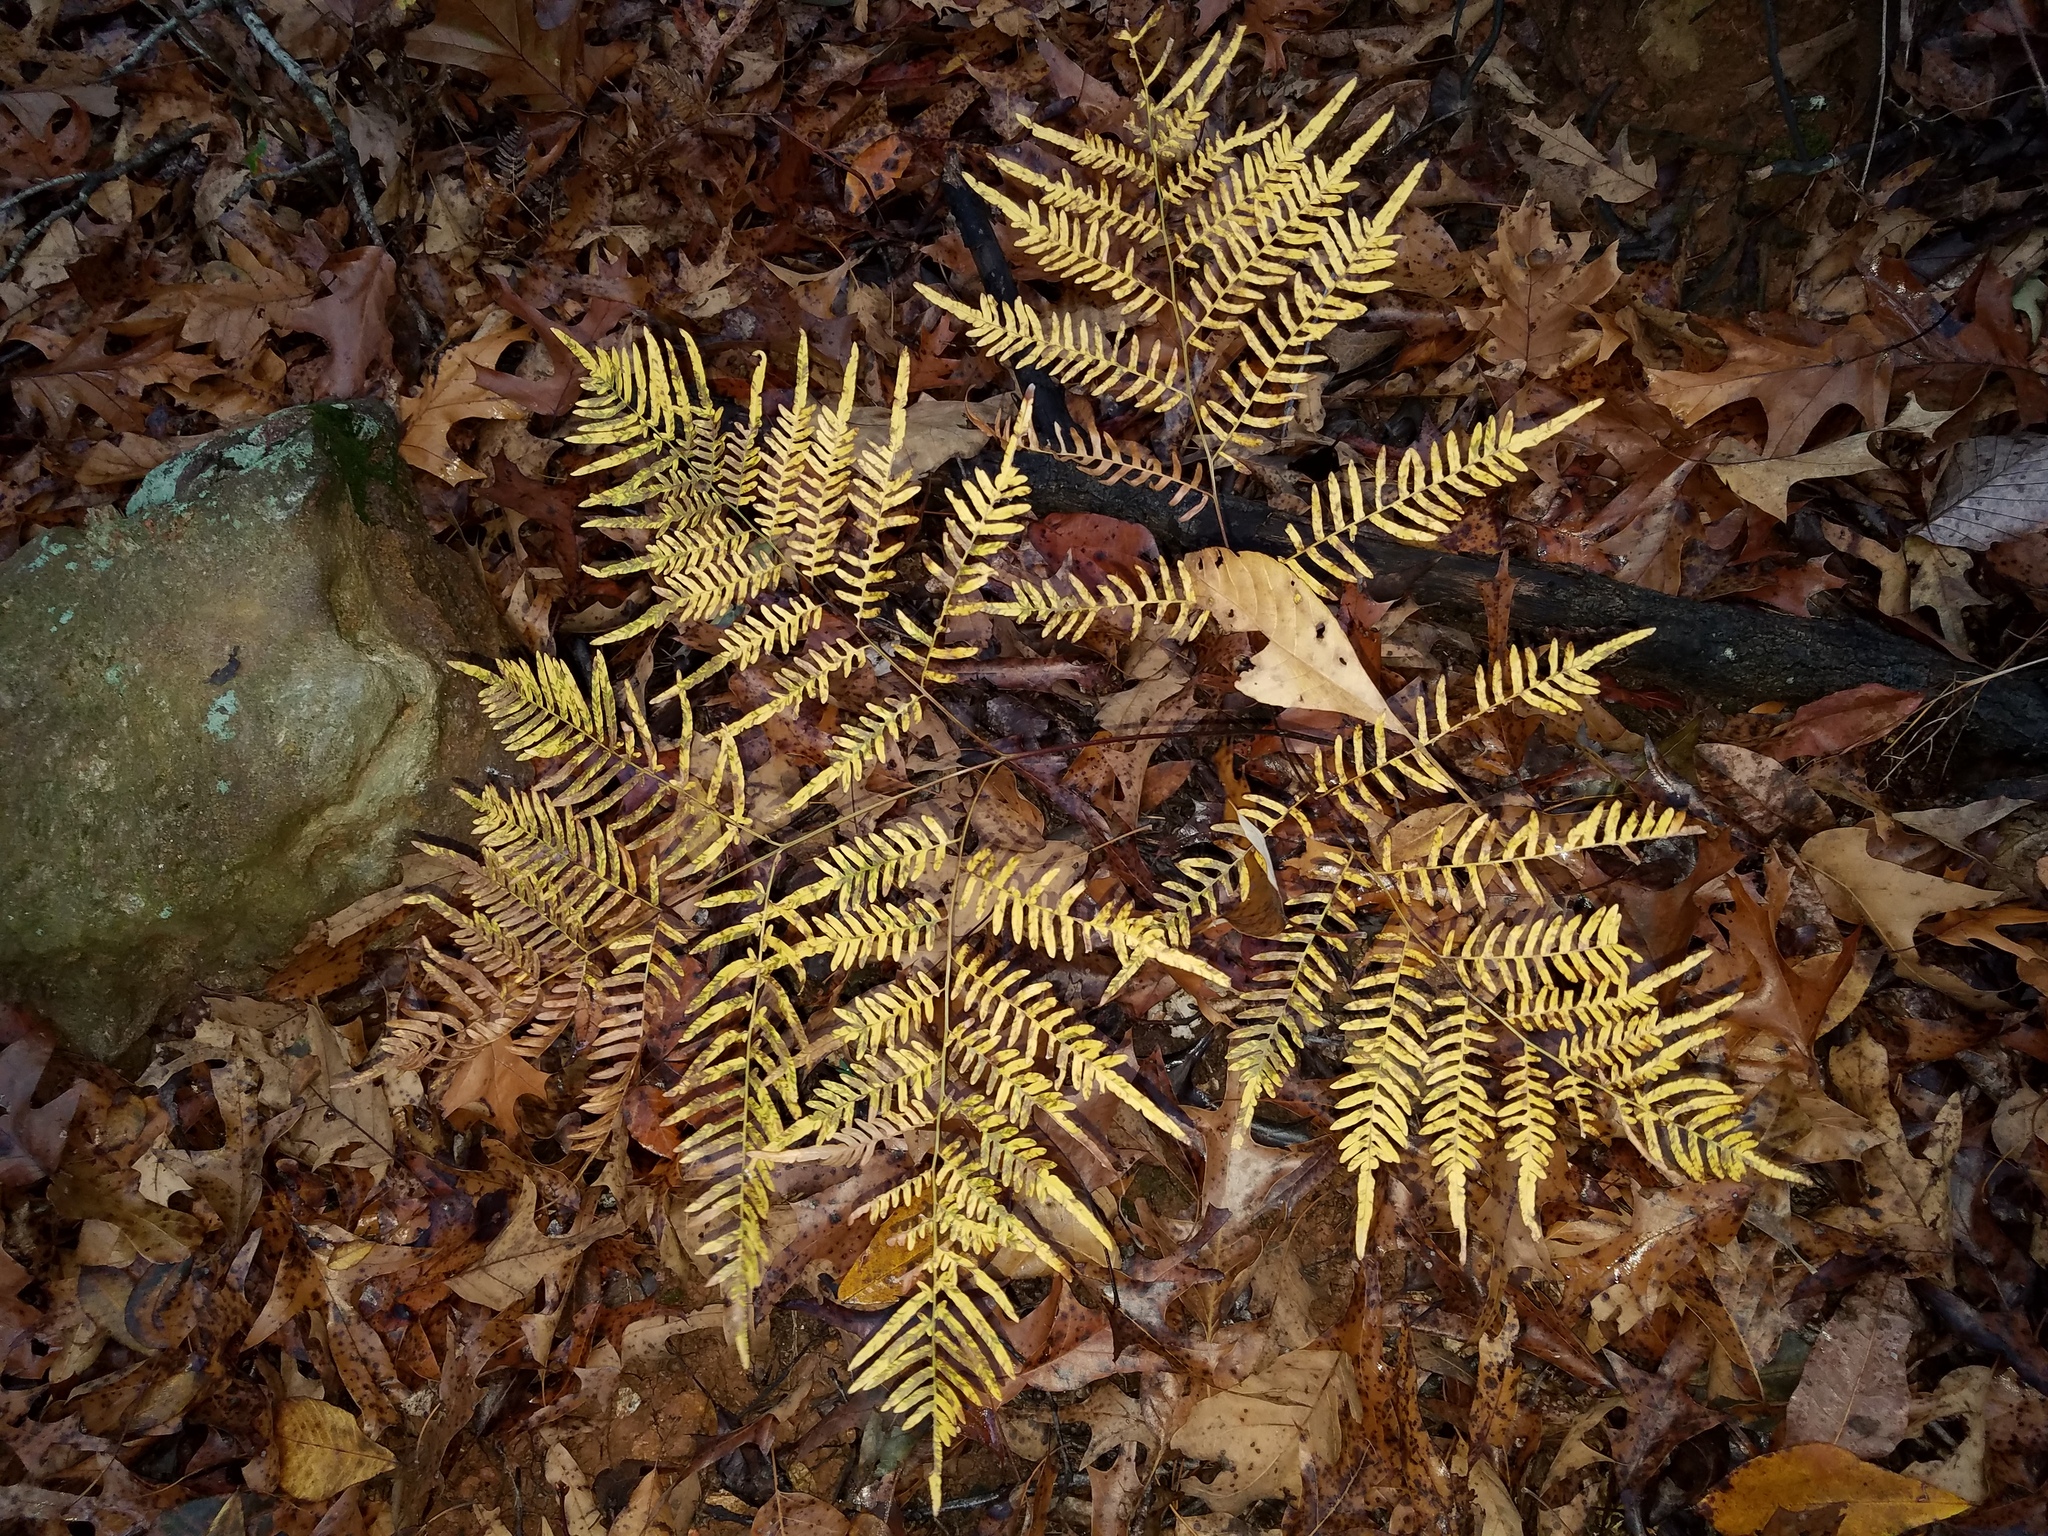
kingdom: Plantae
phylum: Tracheophyta
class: Polypodiopsida
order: Polypodiales
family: Dennstaedtiaceae
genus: Pteridium
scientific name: Pteridium aquilinum
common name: Bracken
